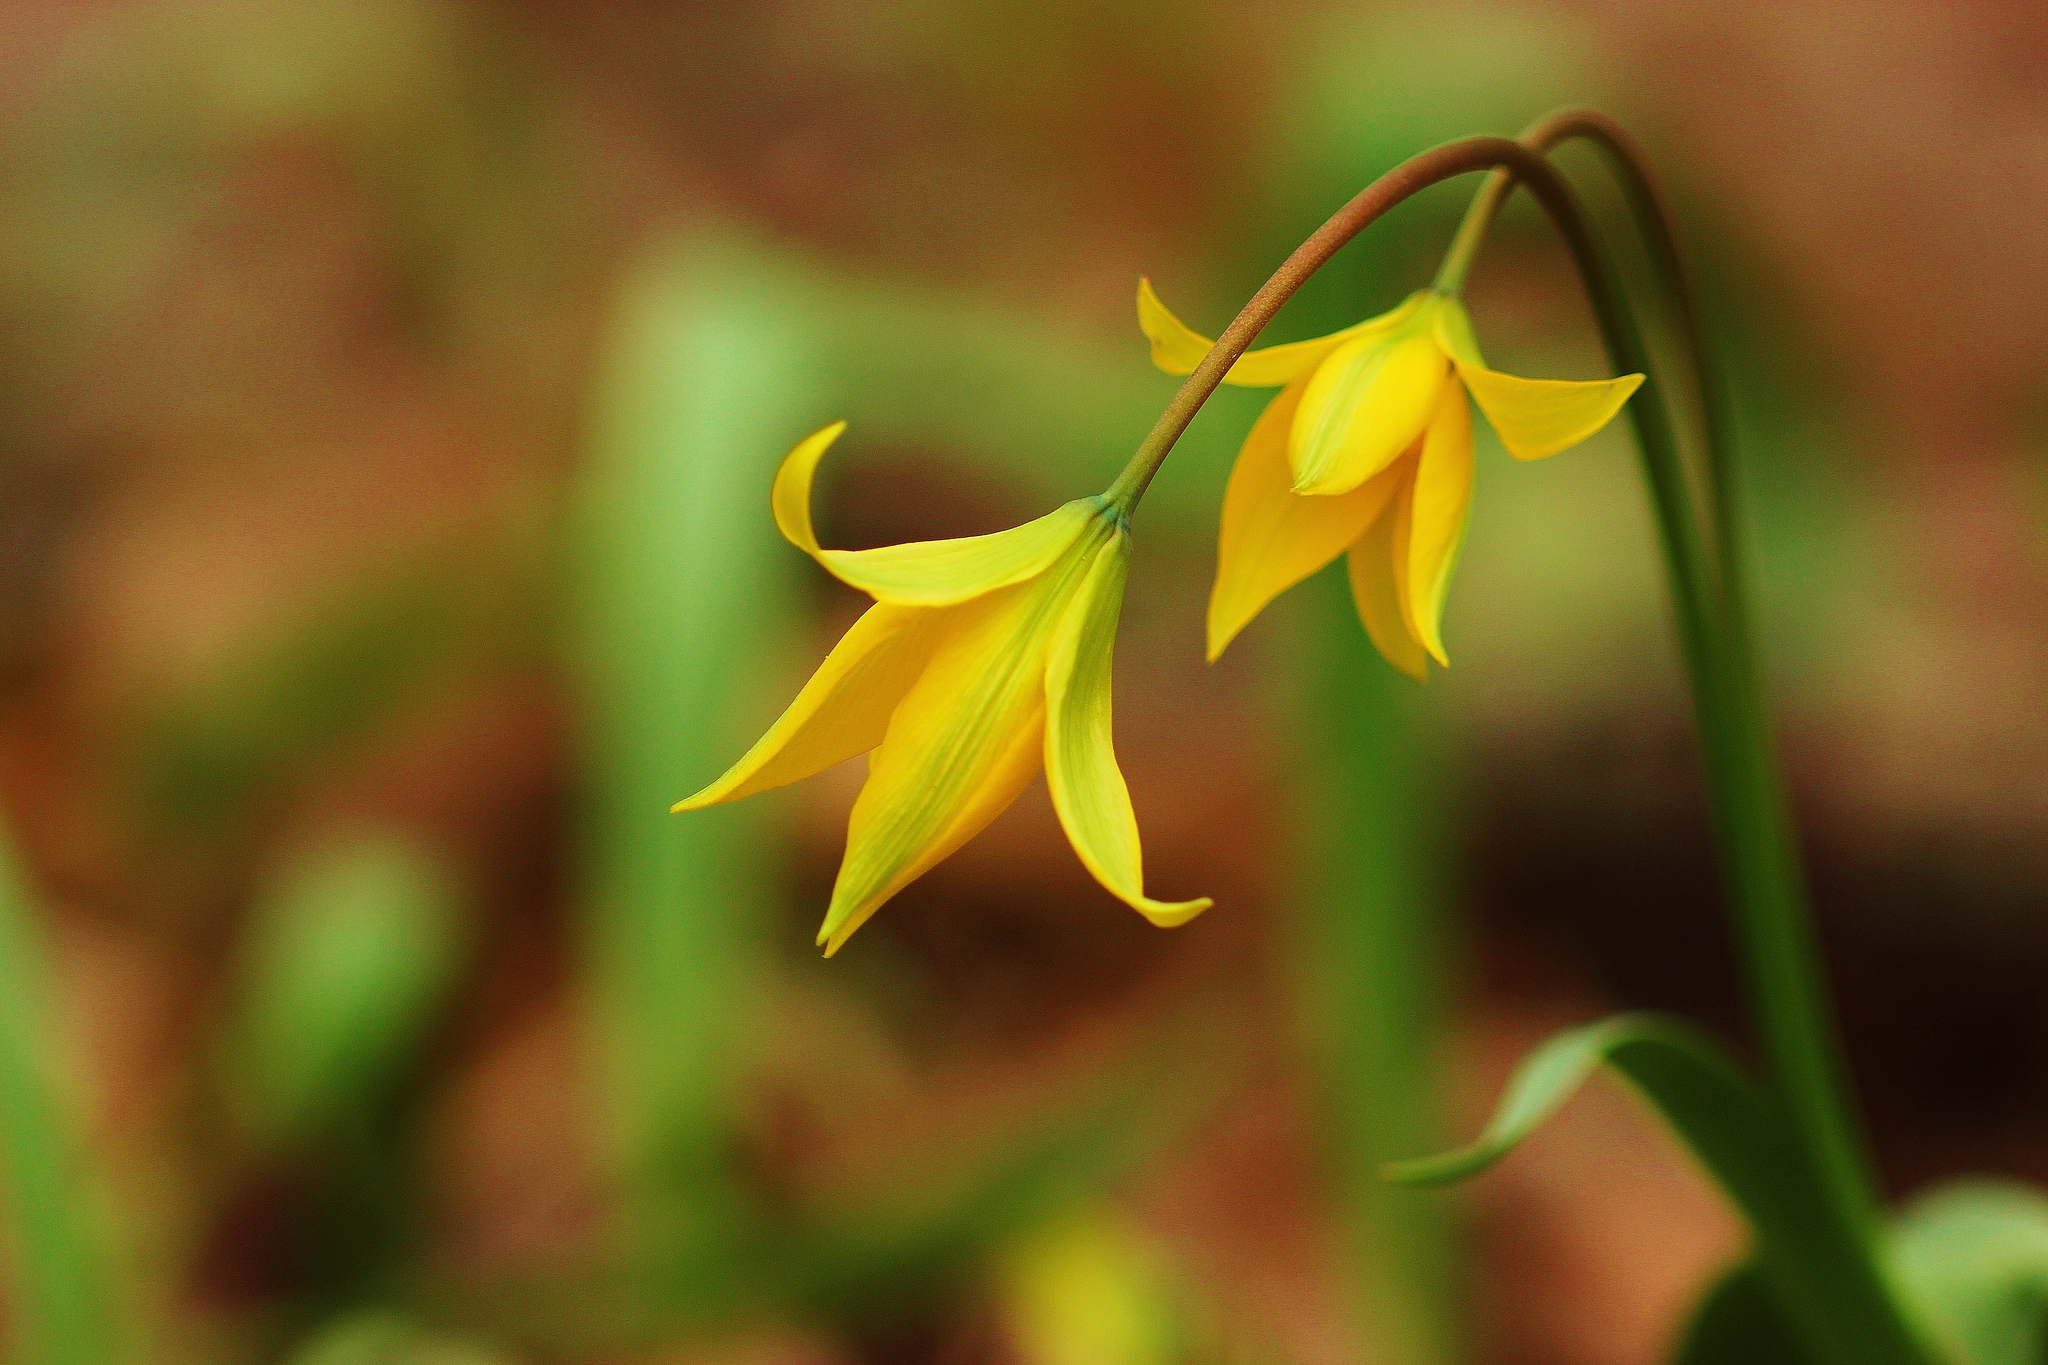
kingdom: Plantae
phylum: Tracheophyta
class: Liliopsida
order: Liliales
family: Liliaceae
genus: Tulipa
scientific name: Tulipa sylvestris
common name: Wild tulip
